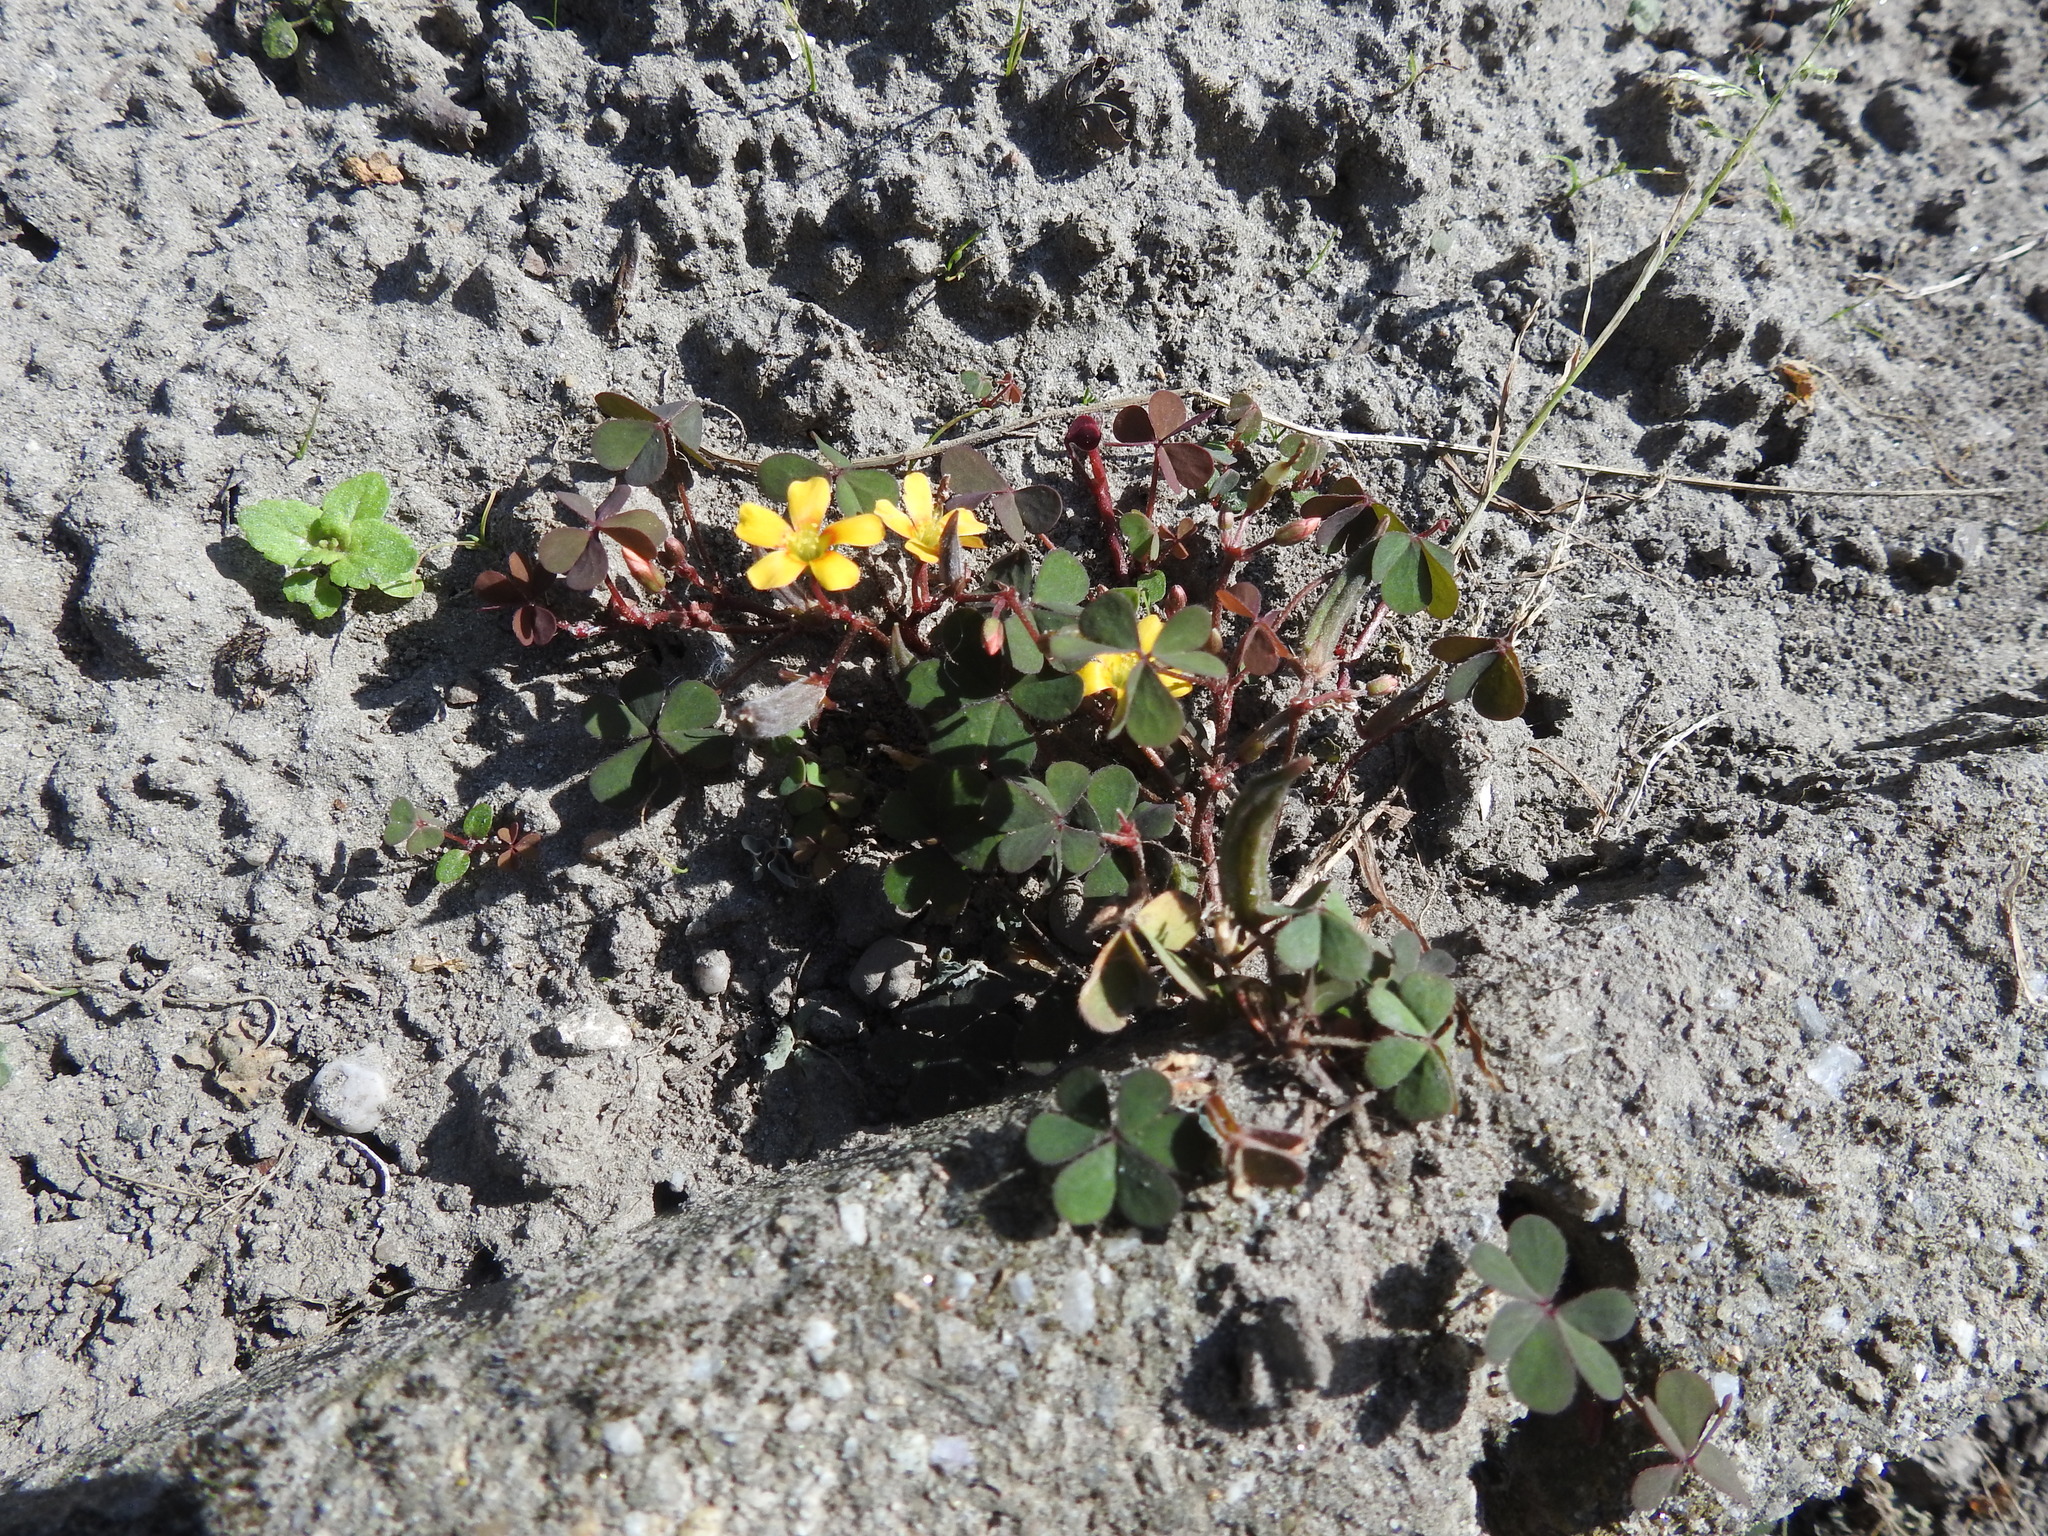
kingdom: Plantae
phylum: Tracheophyta
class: Magnoliopsida
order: Oxalidales
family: Oxalidaceae
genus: Oxalis
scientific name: Oxalis corniculata
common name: Procumbent yellow-sorrel
